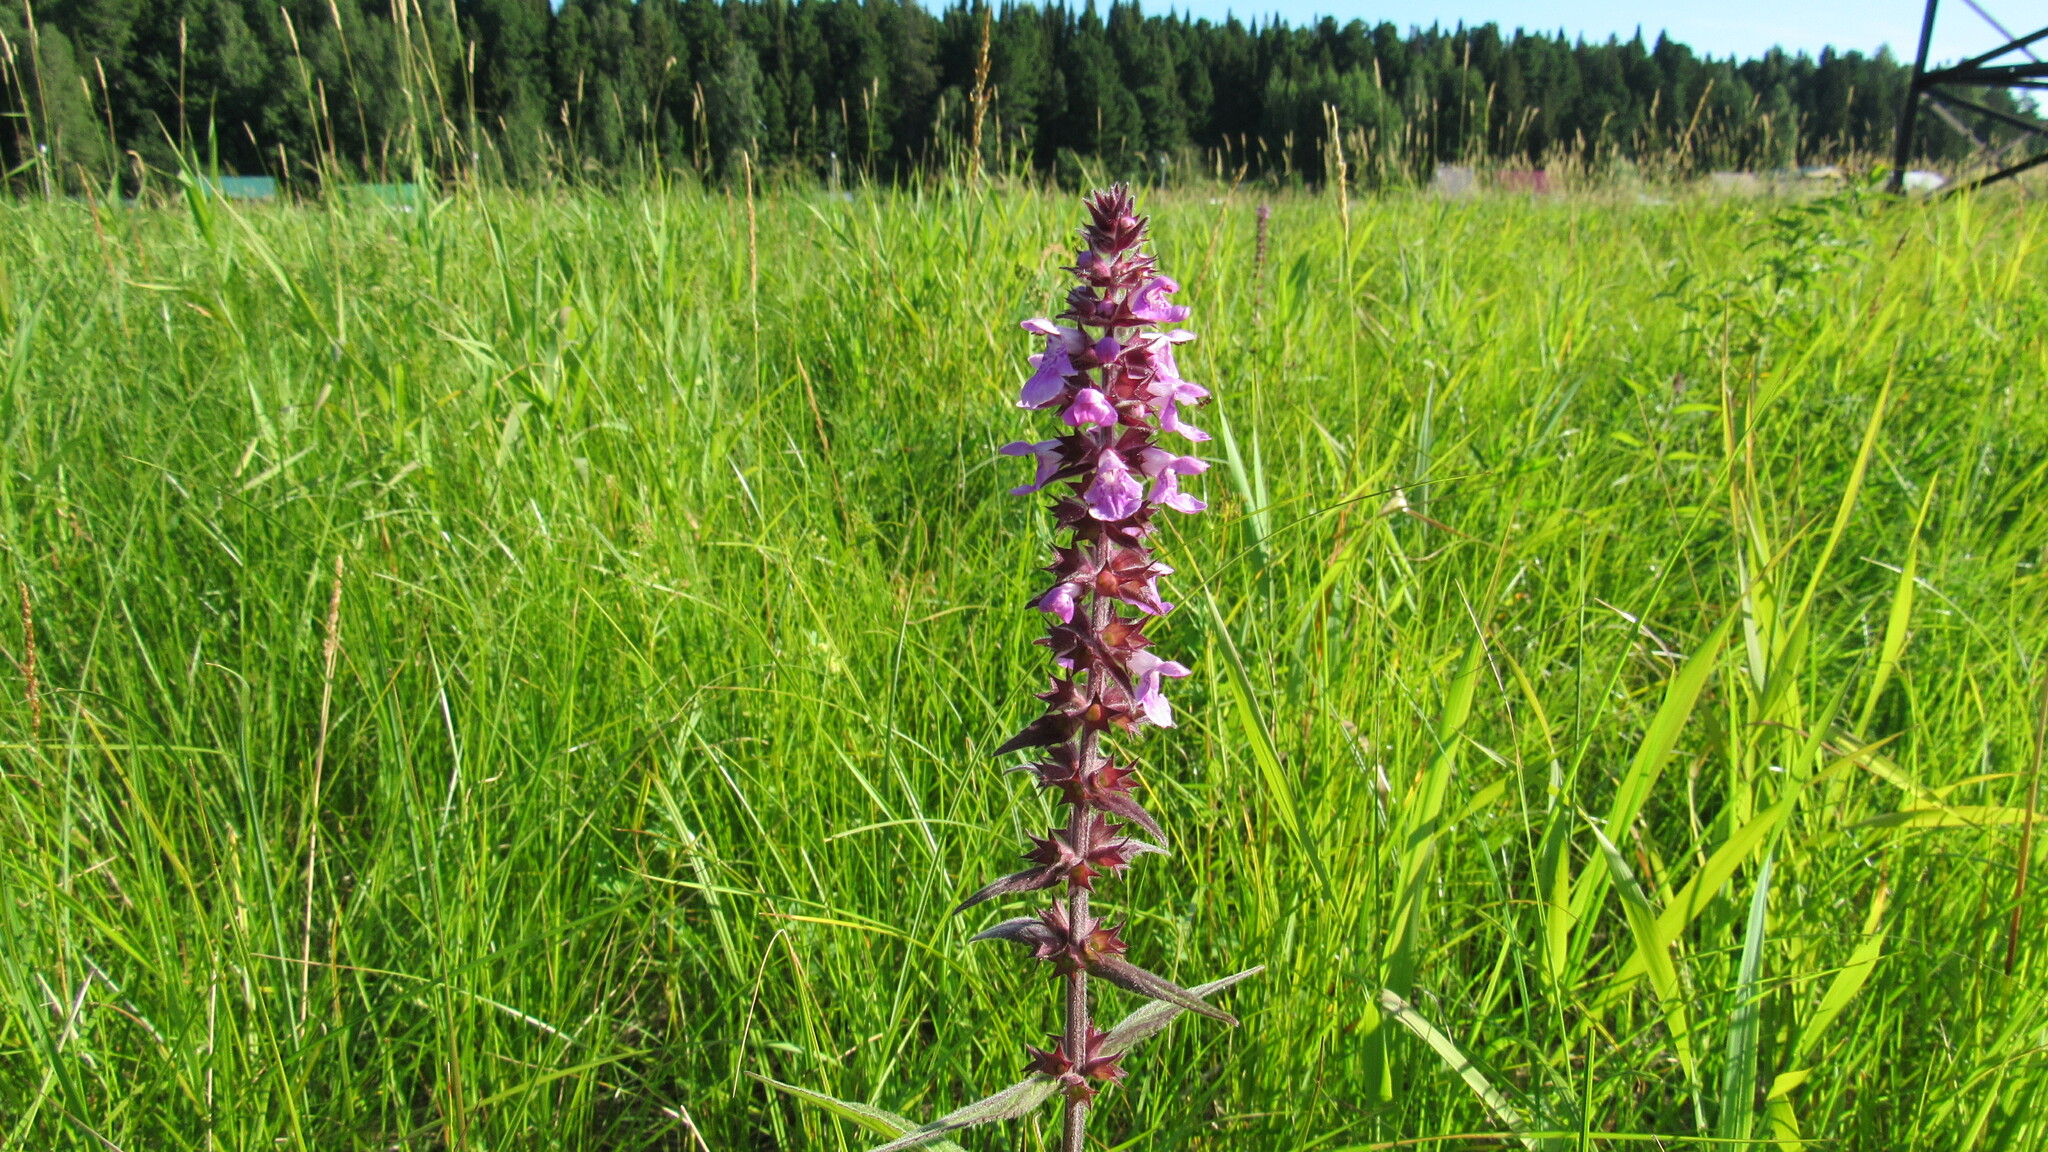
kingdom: Plantae
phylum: Tracheophyta
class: Magnoliopsida
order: Lamiales
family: Lamiaceae
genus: Stachys
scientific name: Stachys palustris
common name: Marsh woundwort
